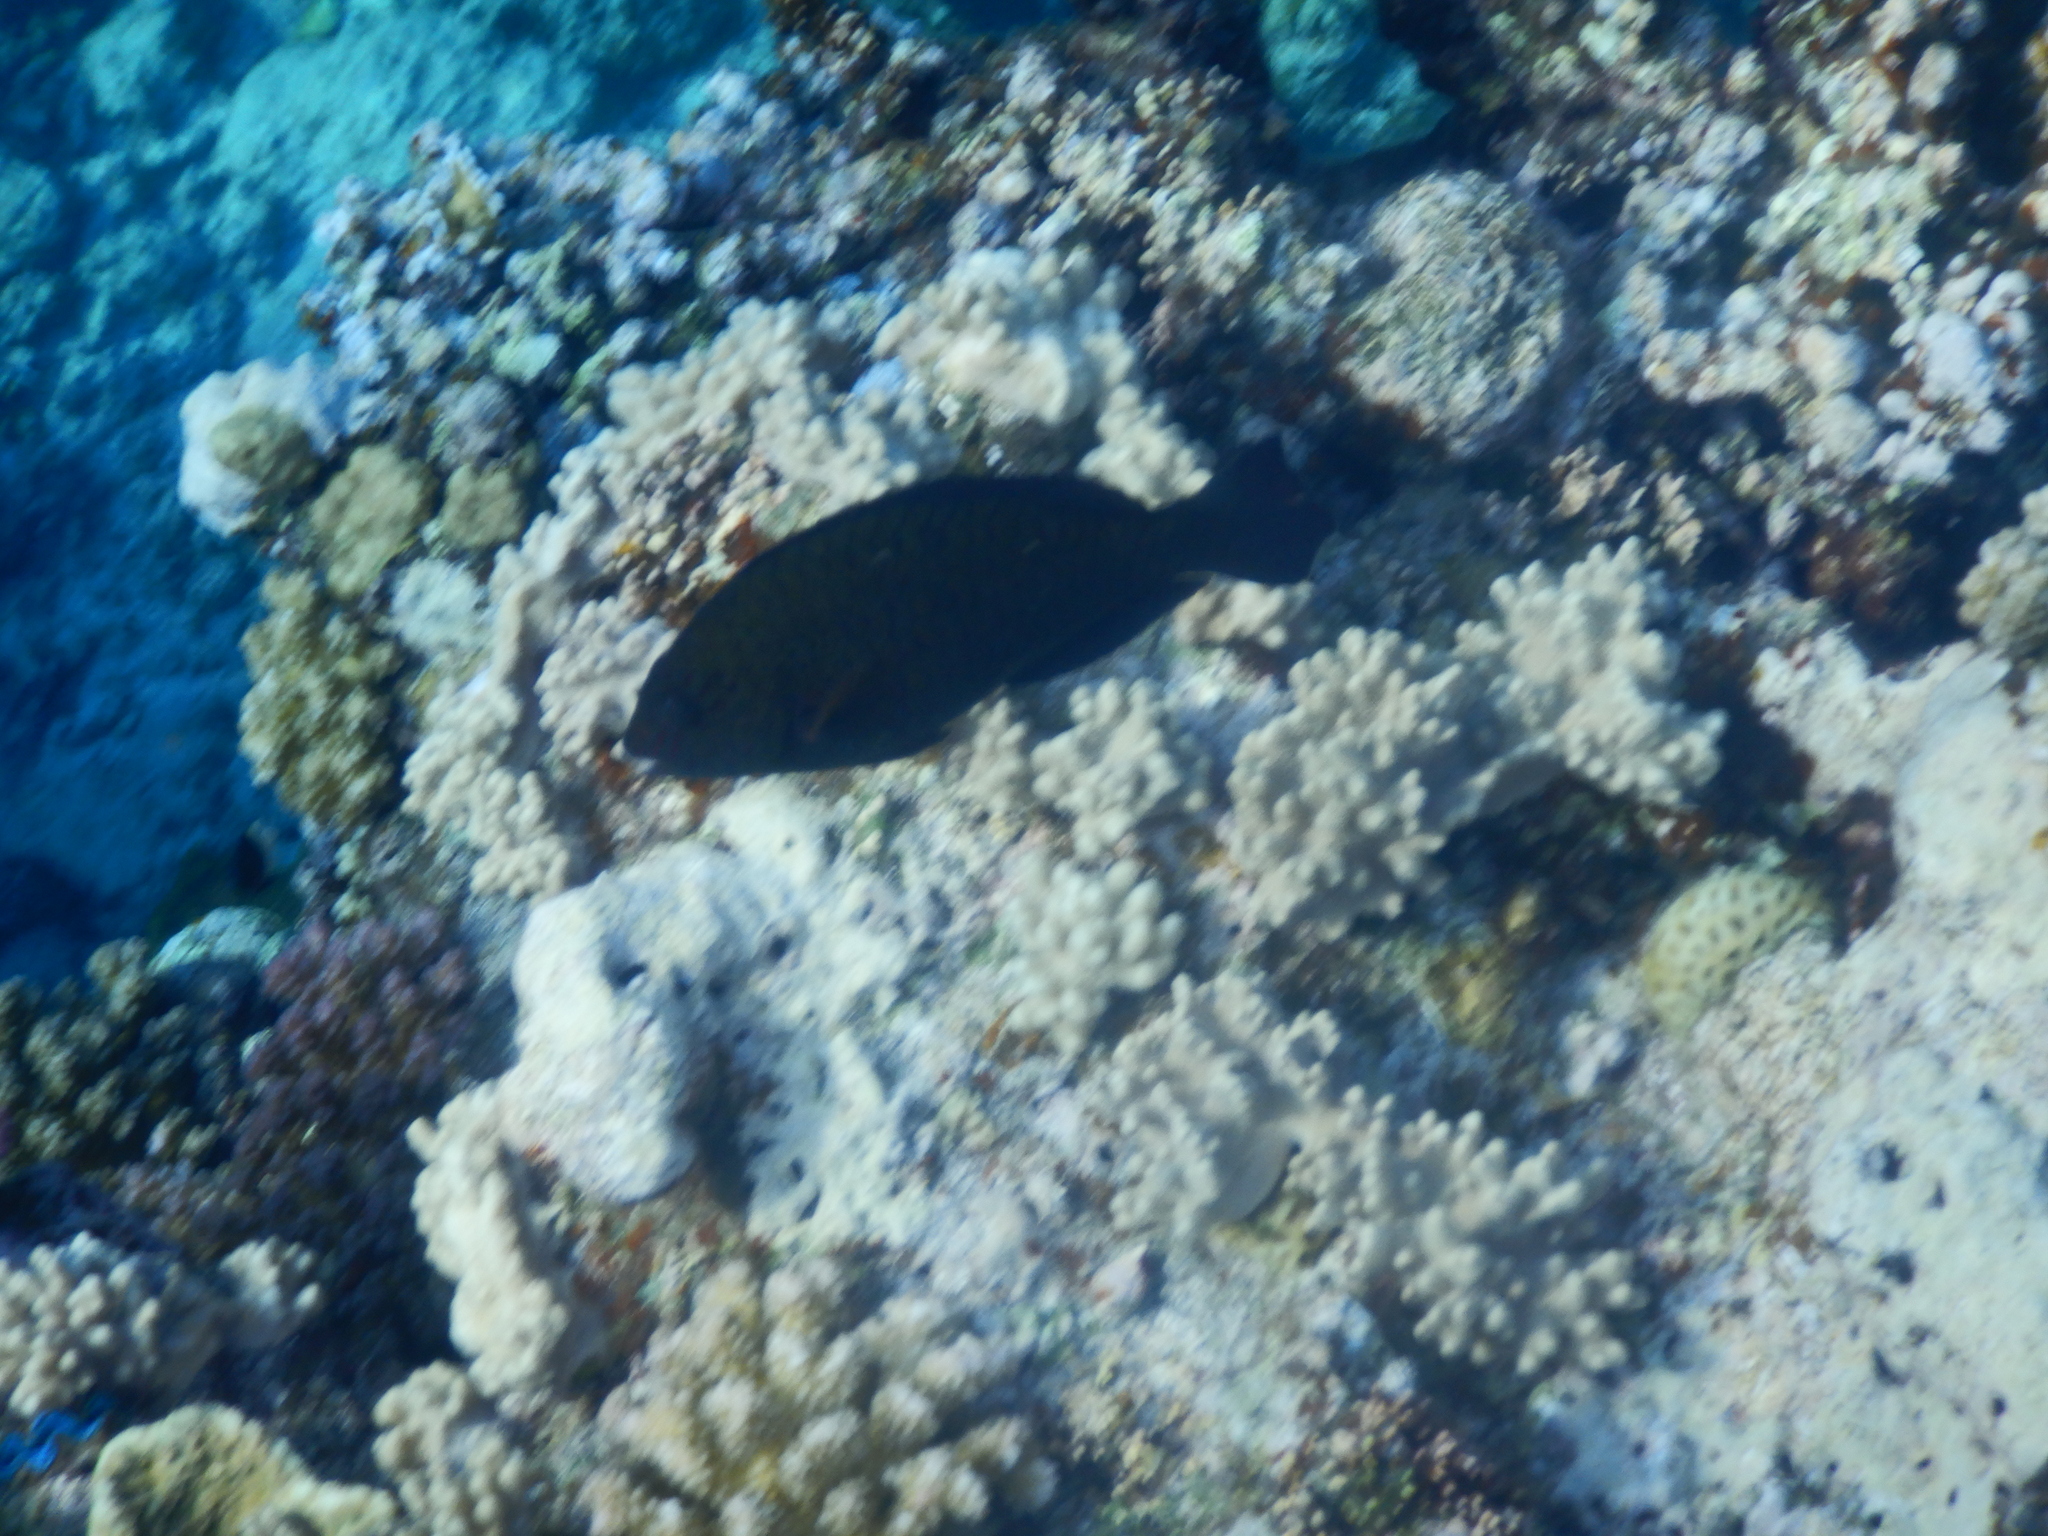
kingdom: Animalia
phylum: Chordata
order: Perciformes
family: Scaridae
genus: Calotomus
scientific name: Calotomus viridescens
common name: Dotted parrotfish
